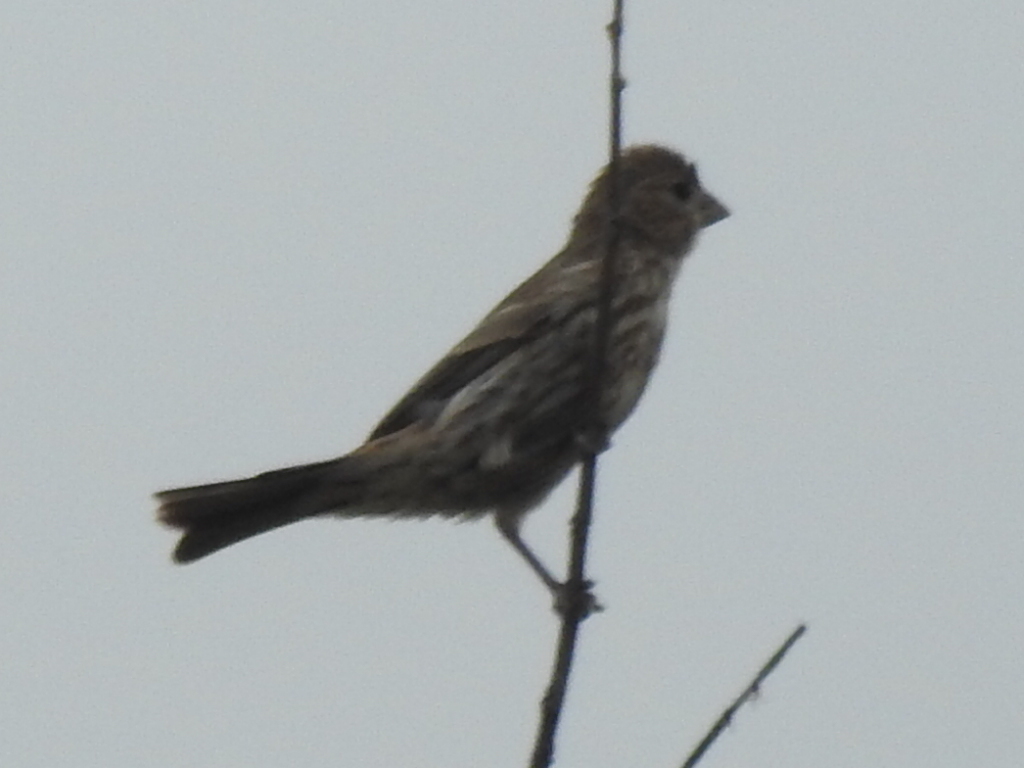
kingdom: Animalia
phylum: Chordata
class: Aves
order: Passeriformes
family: Fringillidae
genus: Haemorhous
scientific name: Haemorhous mexicanus
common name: House finch
